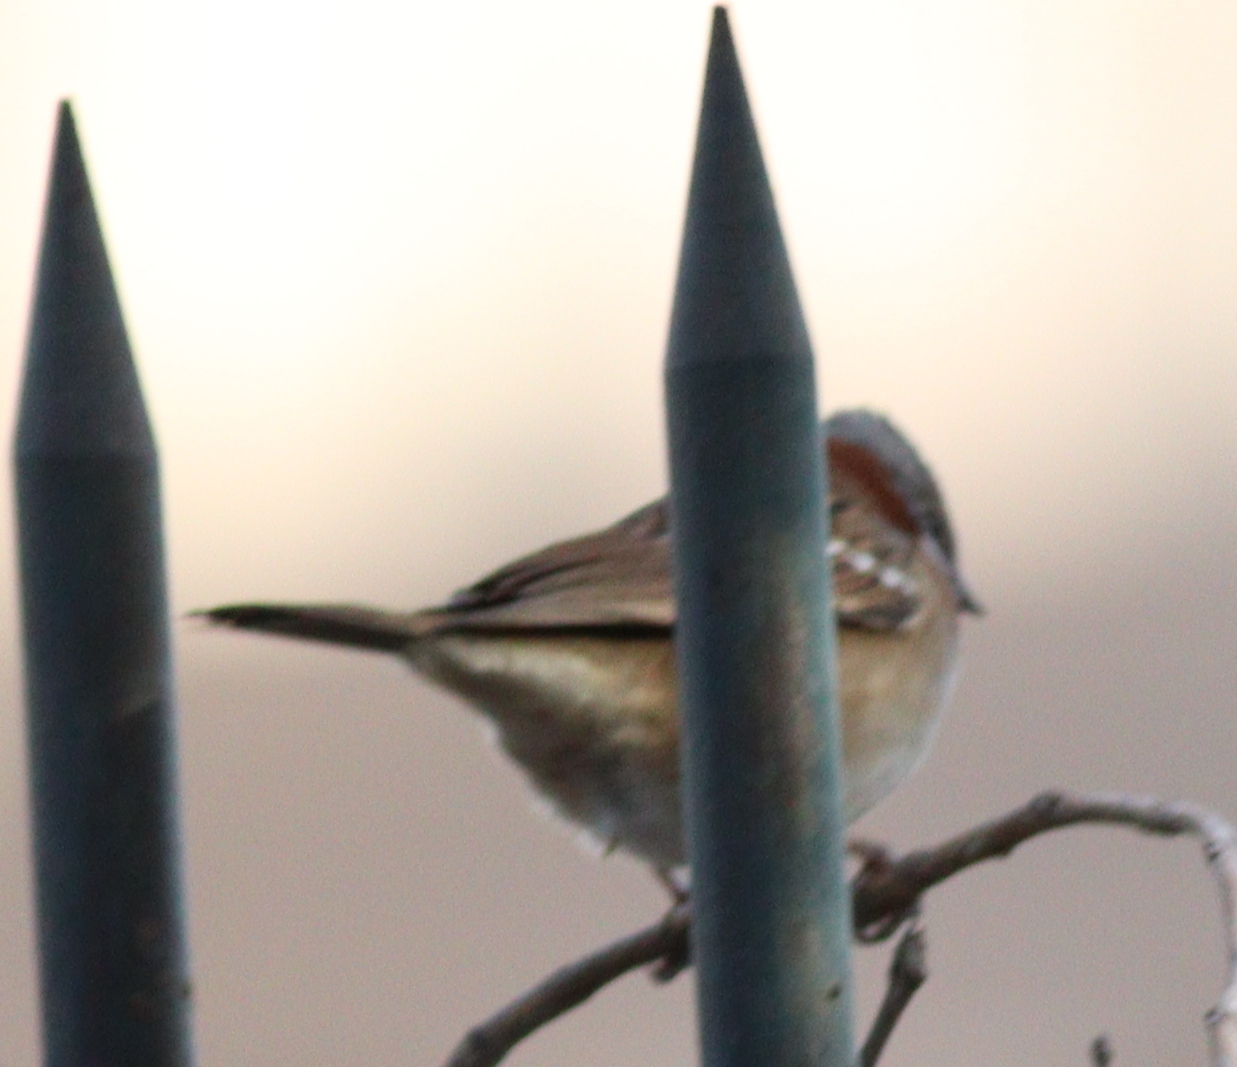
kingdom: Animalia
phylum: Chordata
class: Aves
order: Passeriformes
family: Passerellidae
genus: Zonotrichia
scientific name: Zonotrichia capensis
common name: Rufous-collared sparrow
